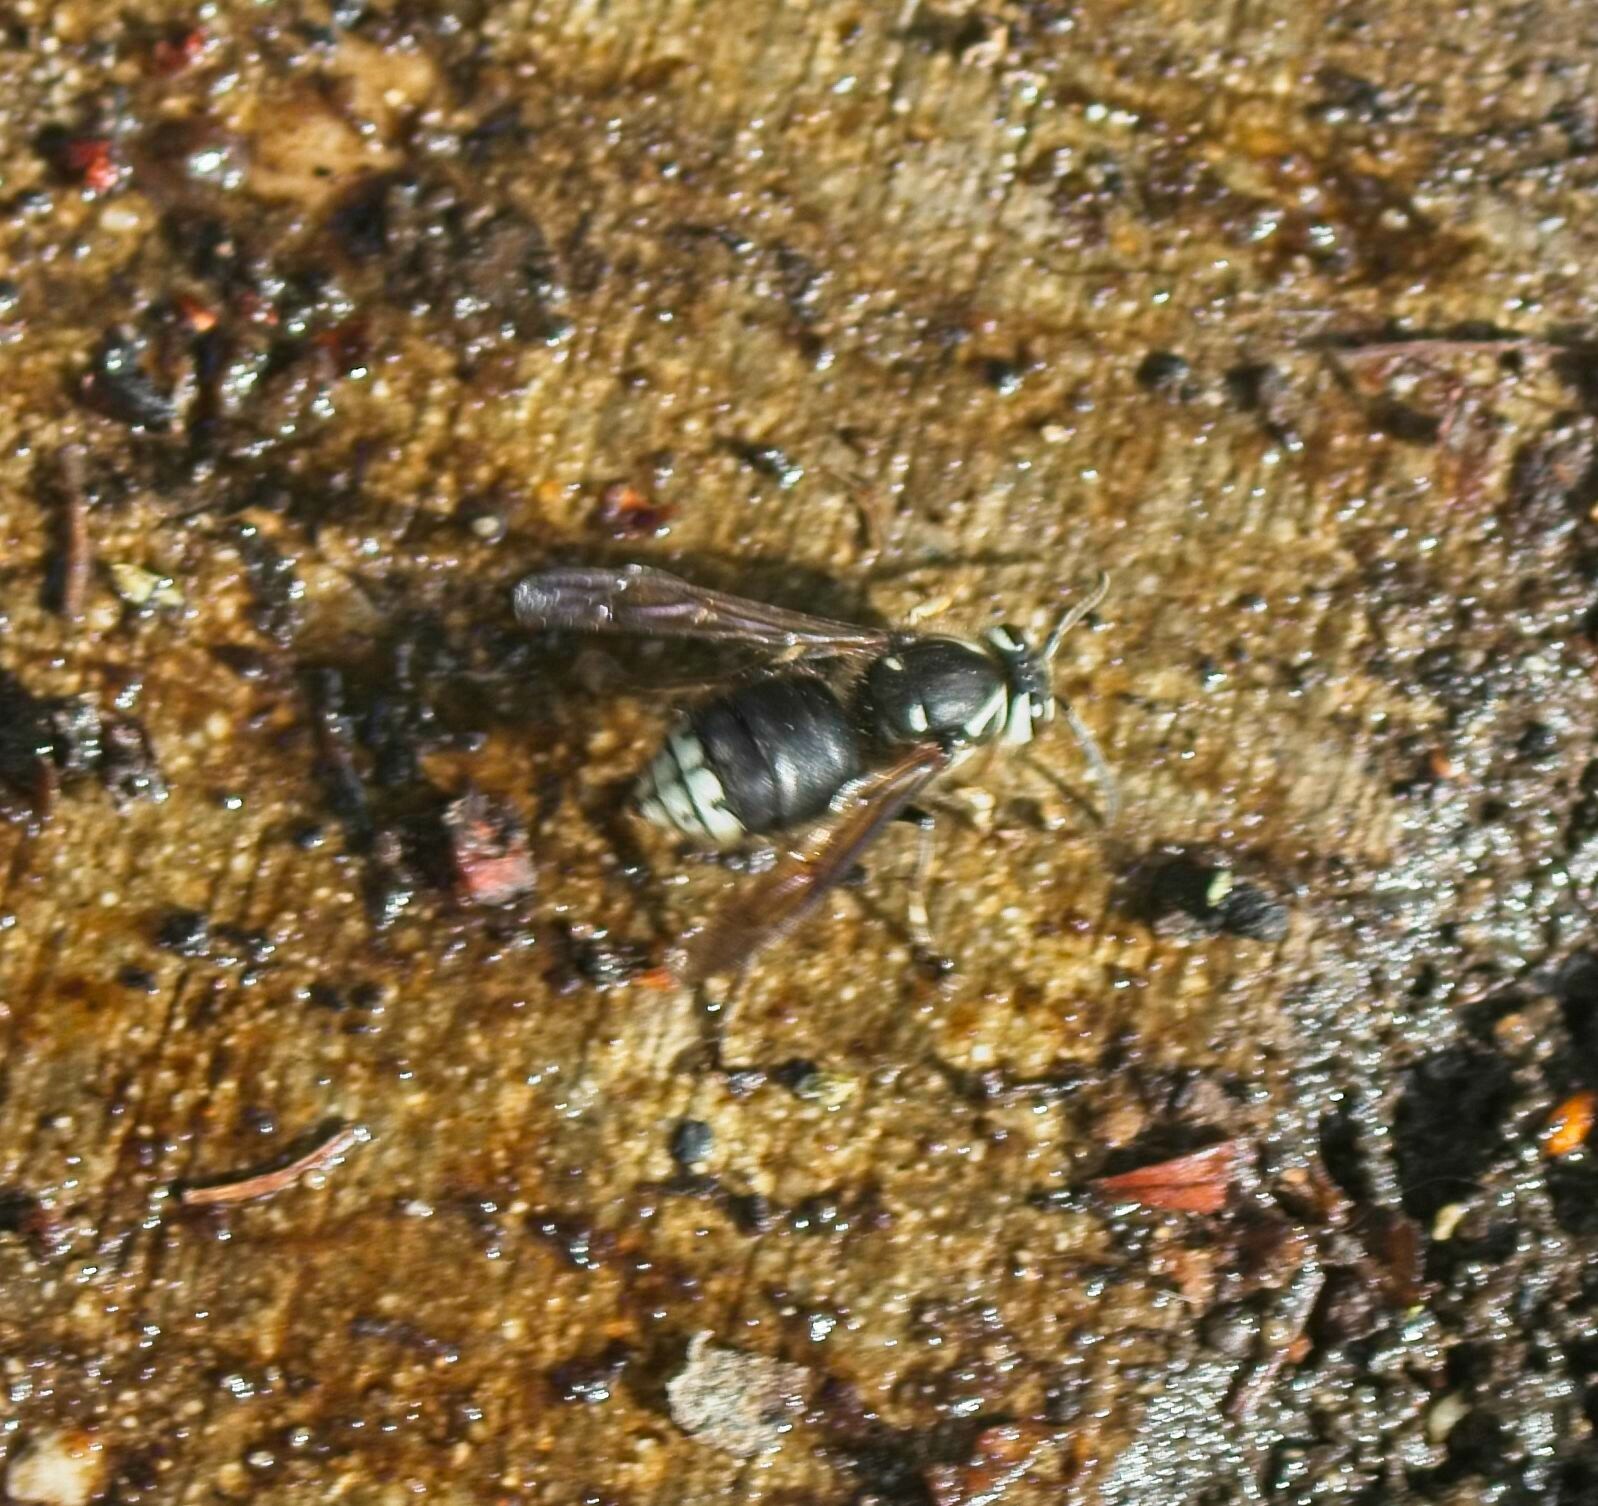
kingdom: Animalia
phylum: Arthropoda
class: Insecta
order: Hymenoptera
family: Vespidae
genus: Dolichovespula
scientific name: Dolichovespula maculata
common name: Bald-faced hornet
